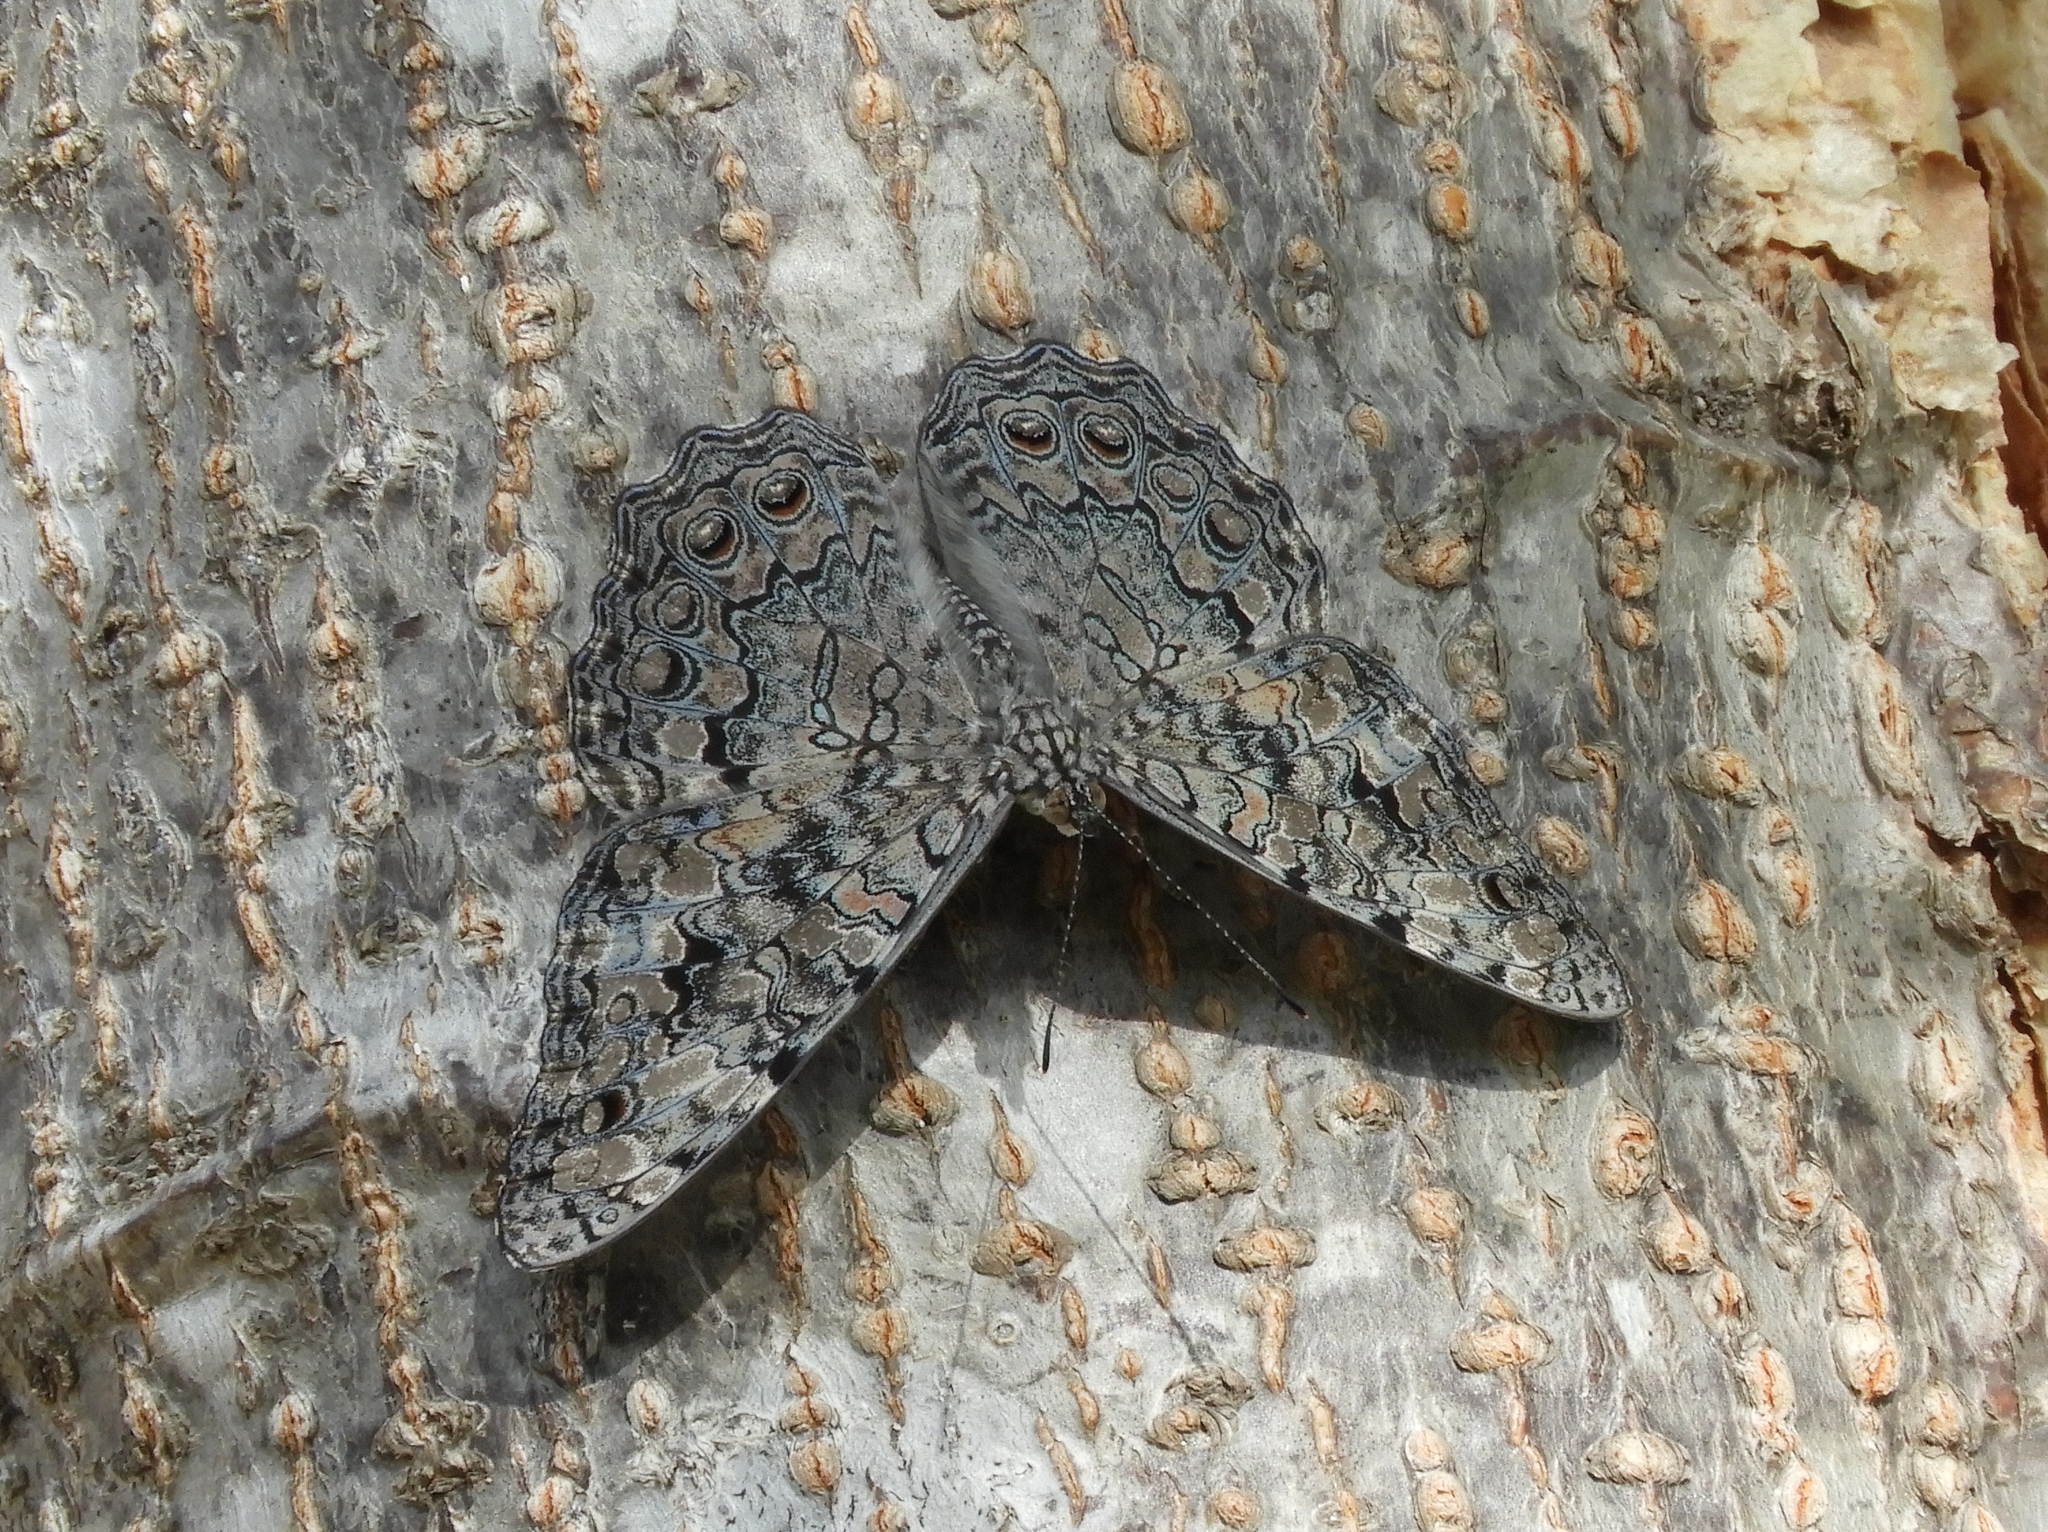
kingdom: Animalia
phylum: Arthropoda
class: Insecta
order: Lepidoptera
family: Nymphalidae
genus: Hamadryas
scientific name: Hamadryas februa
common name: Gray cracker
